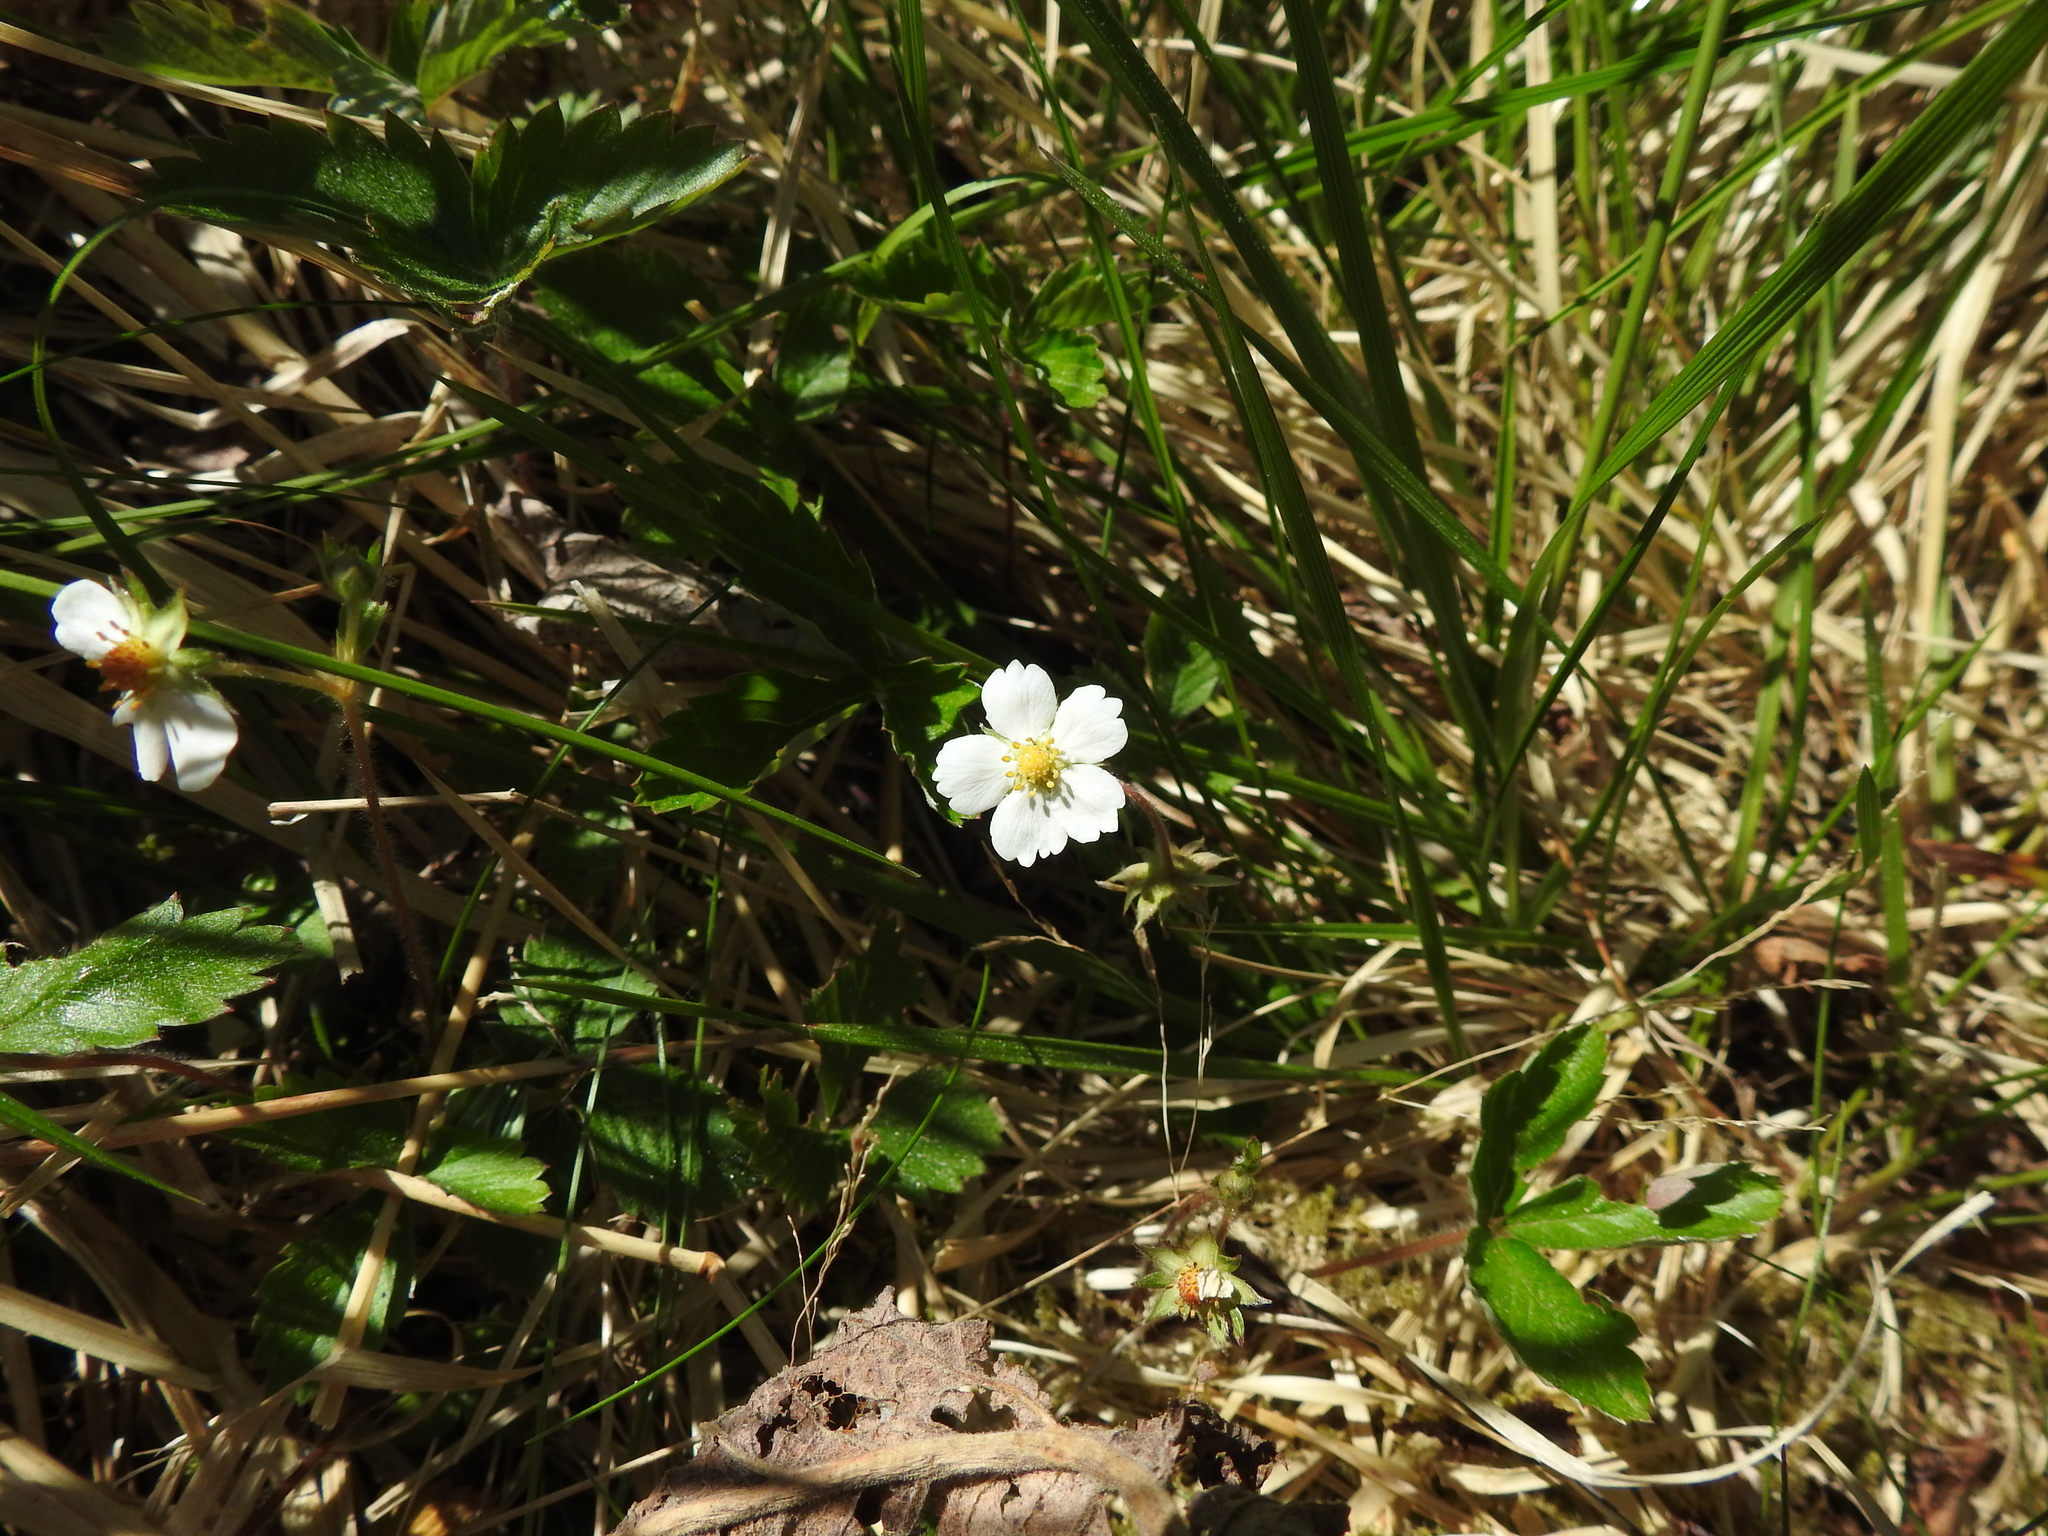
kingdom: Plantae
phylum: Tracheophyta
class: Magnoliopsida
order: Rosales
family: Rosaceae
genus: Fragaria
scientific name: Fragaria vesca
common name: Wild strawberry
